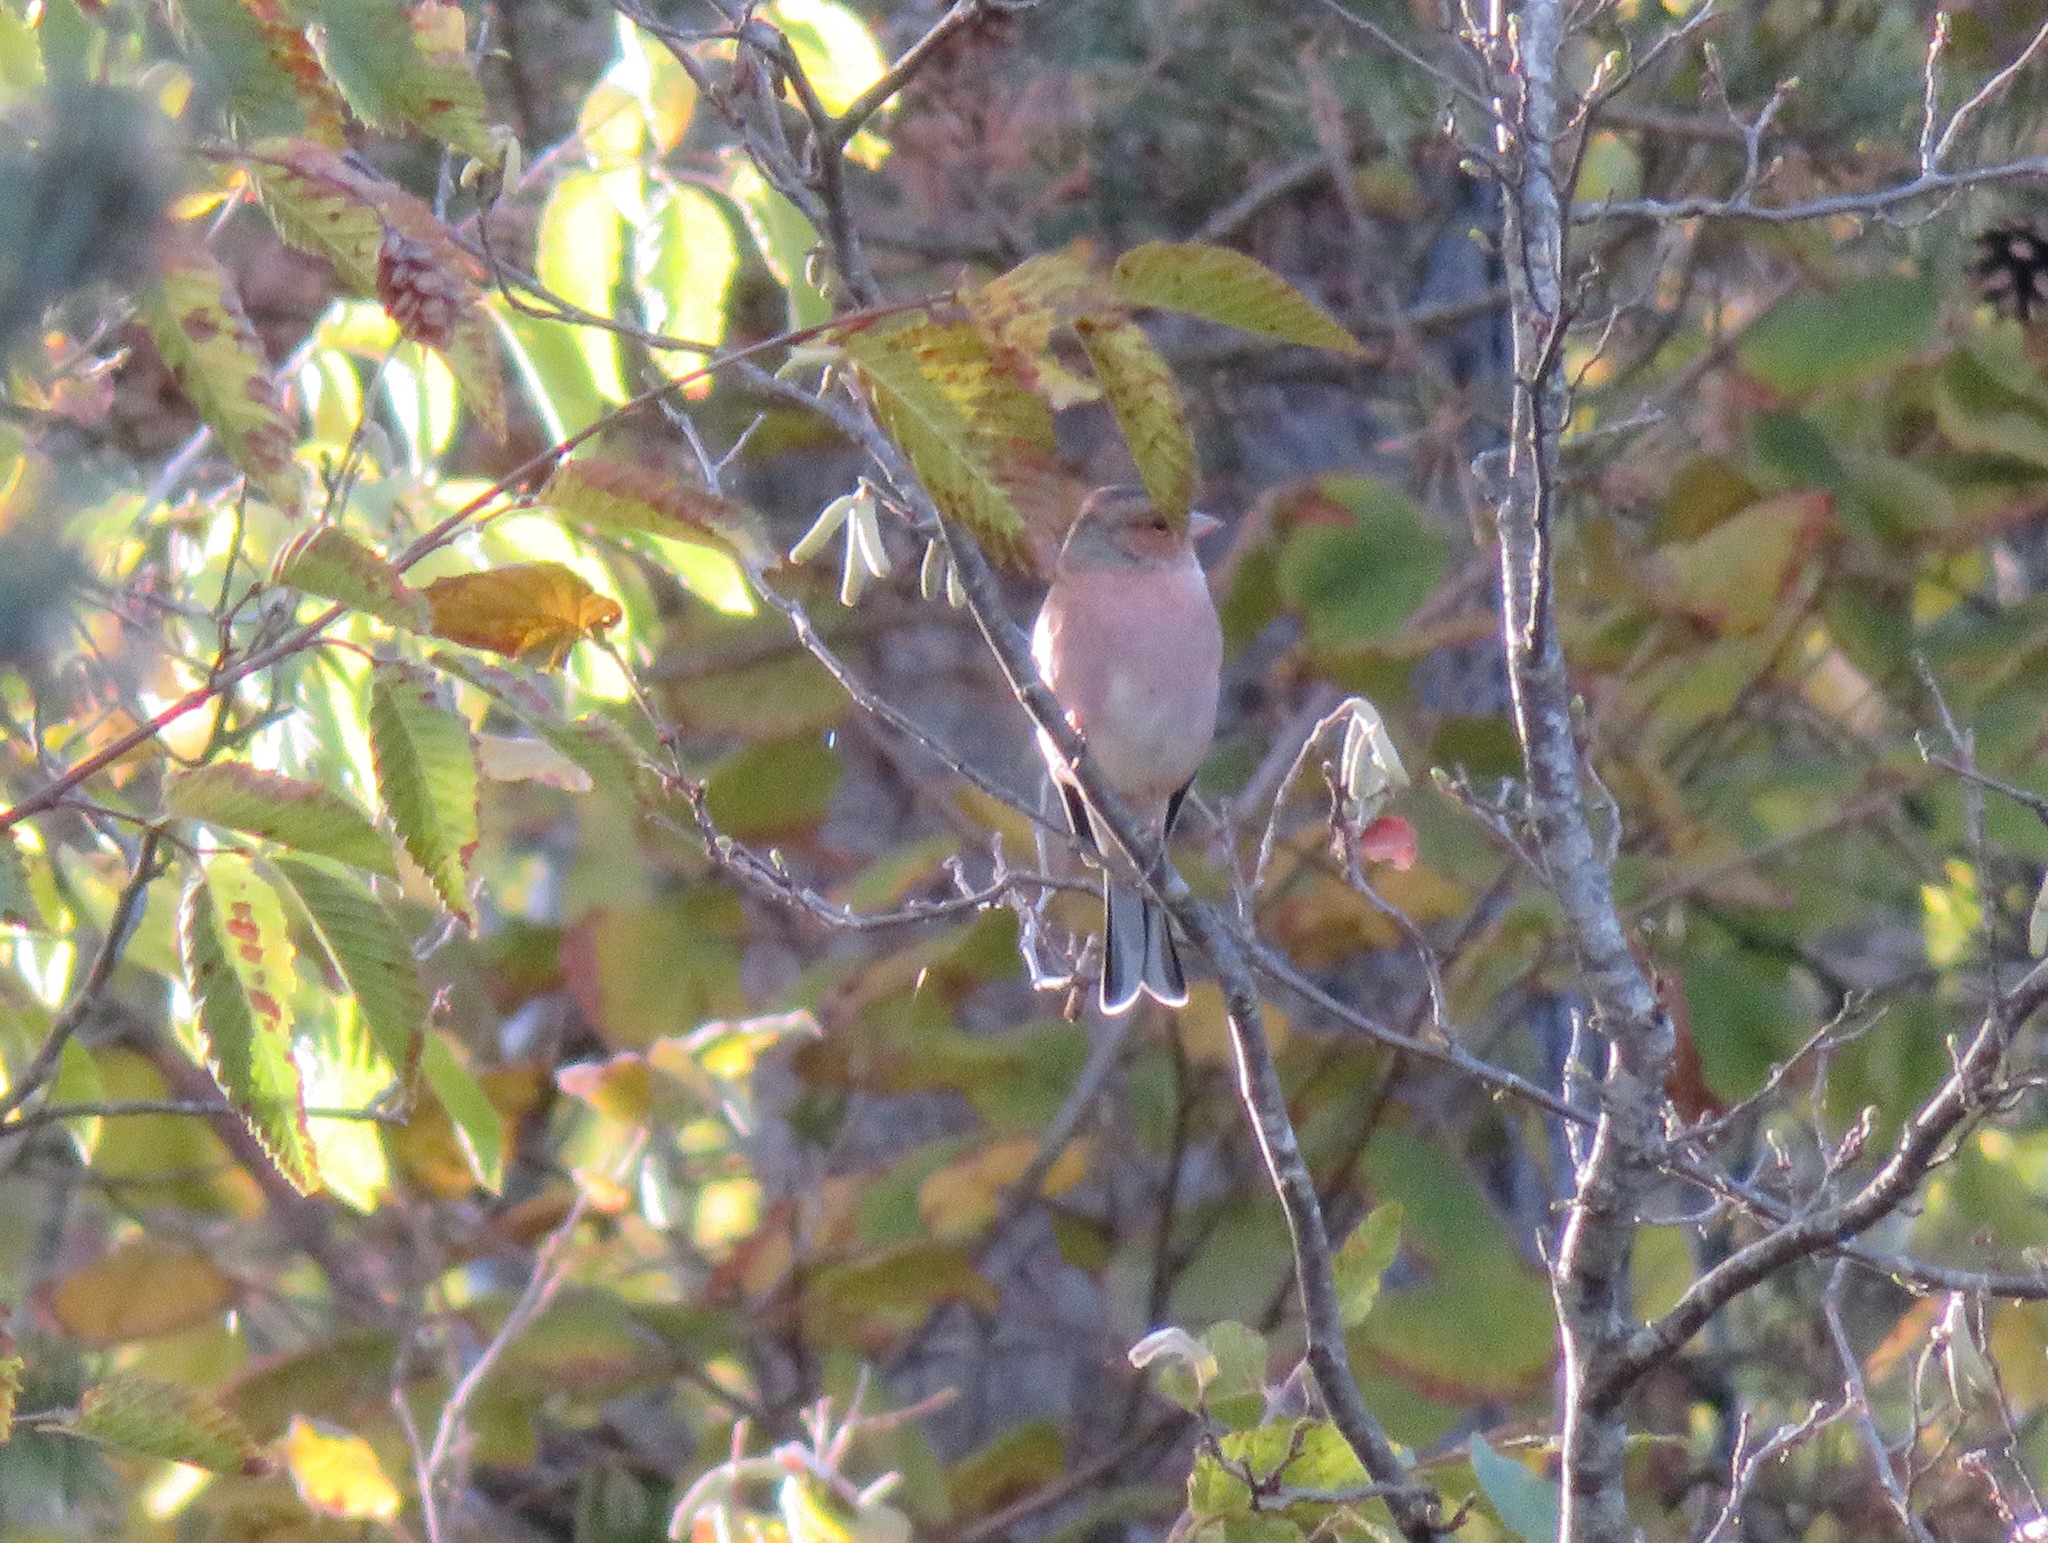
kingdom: Animalia
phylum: Chordata
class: Aves
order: Passeriformes
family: Fringillidae
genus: Fringilla
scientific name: Fringilla coelebs
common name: Common chaffinch
